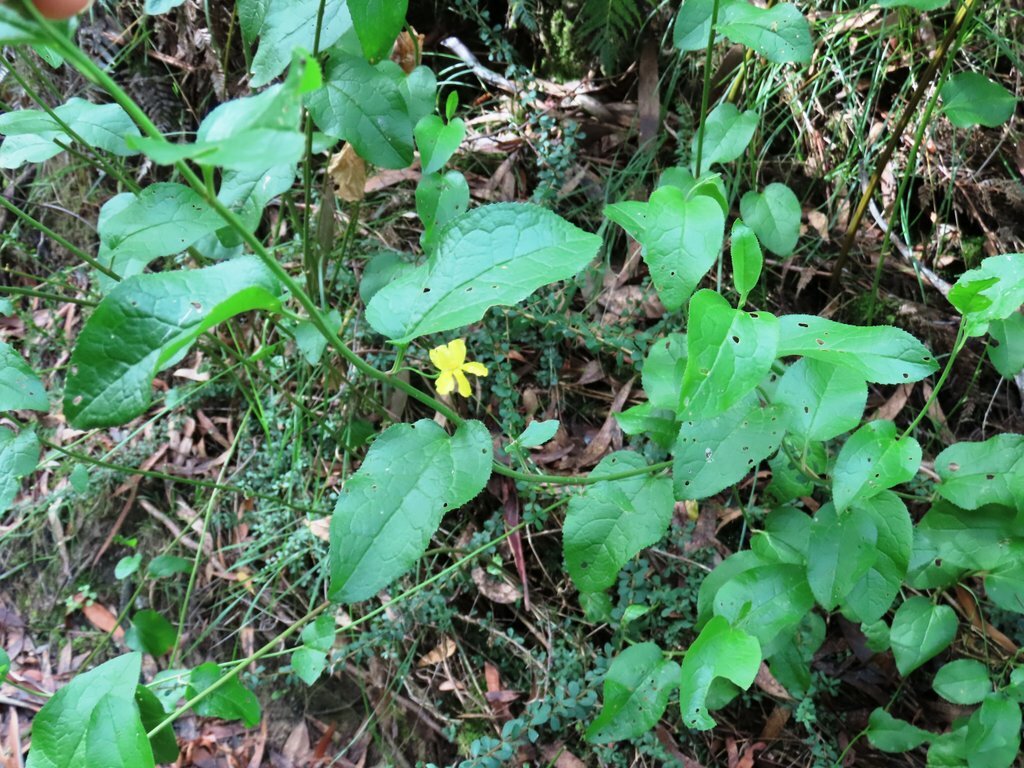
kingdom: Plantae
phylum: Tracheophyta
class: Magnoliopsida
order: Asterales
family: Goodeniaceae
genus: Goodenia
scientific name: Goodenia ovata
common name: Hop goodenia
